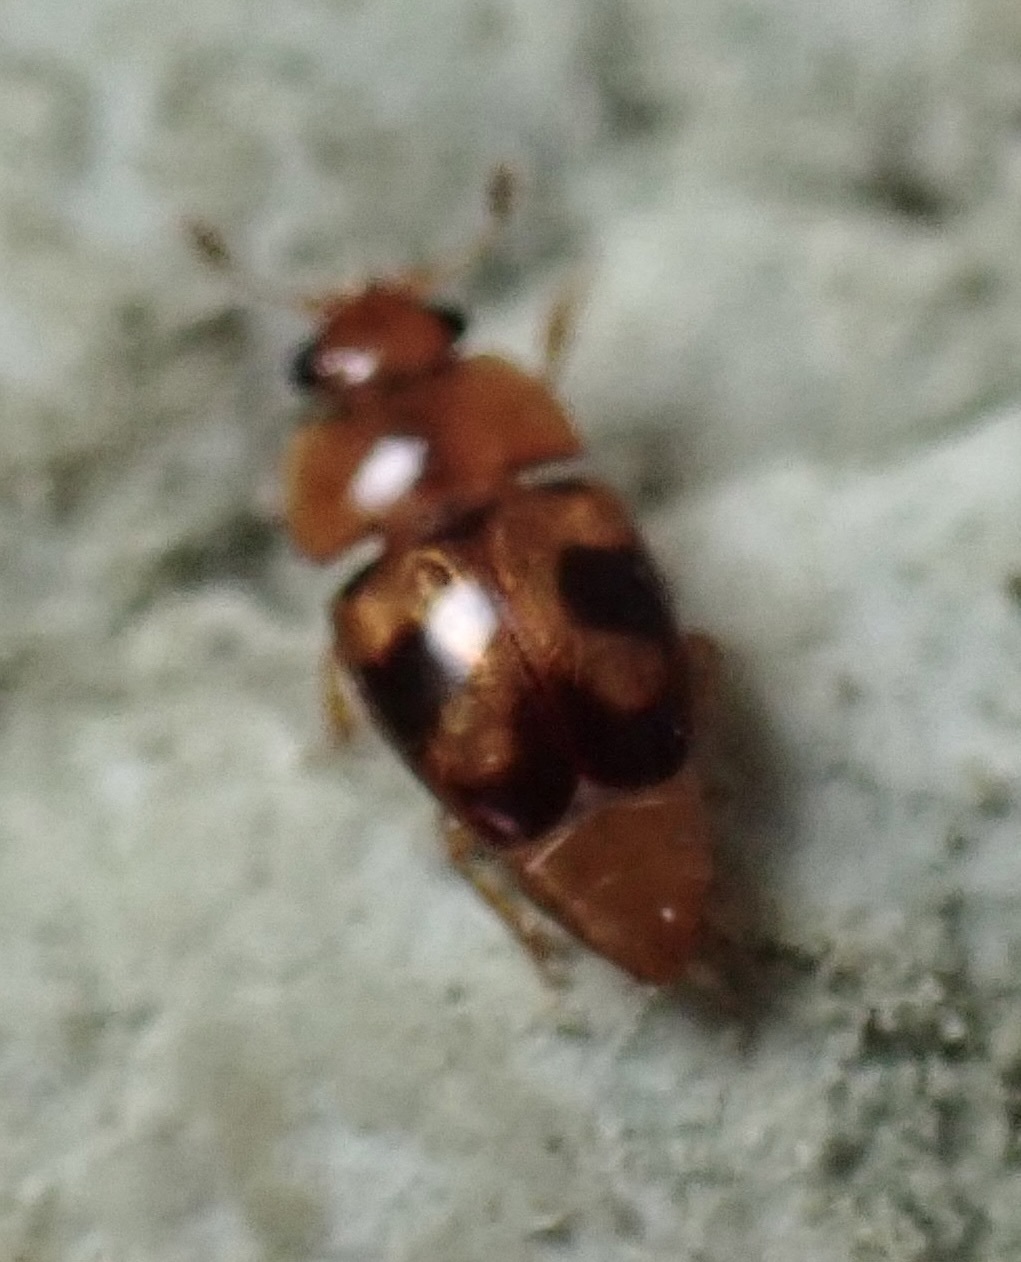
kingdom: Animalia
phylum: Arthropoda
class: Insecta
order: Coleoptera
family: Nitidulidae
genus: Epuraea
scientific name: Epuraea ocularis
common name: Sap beetle
